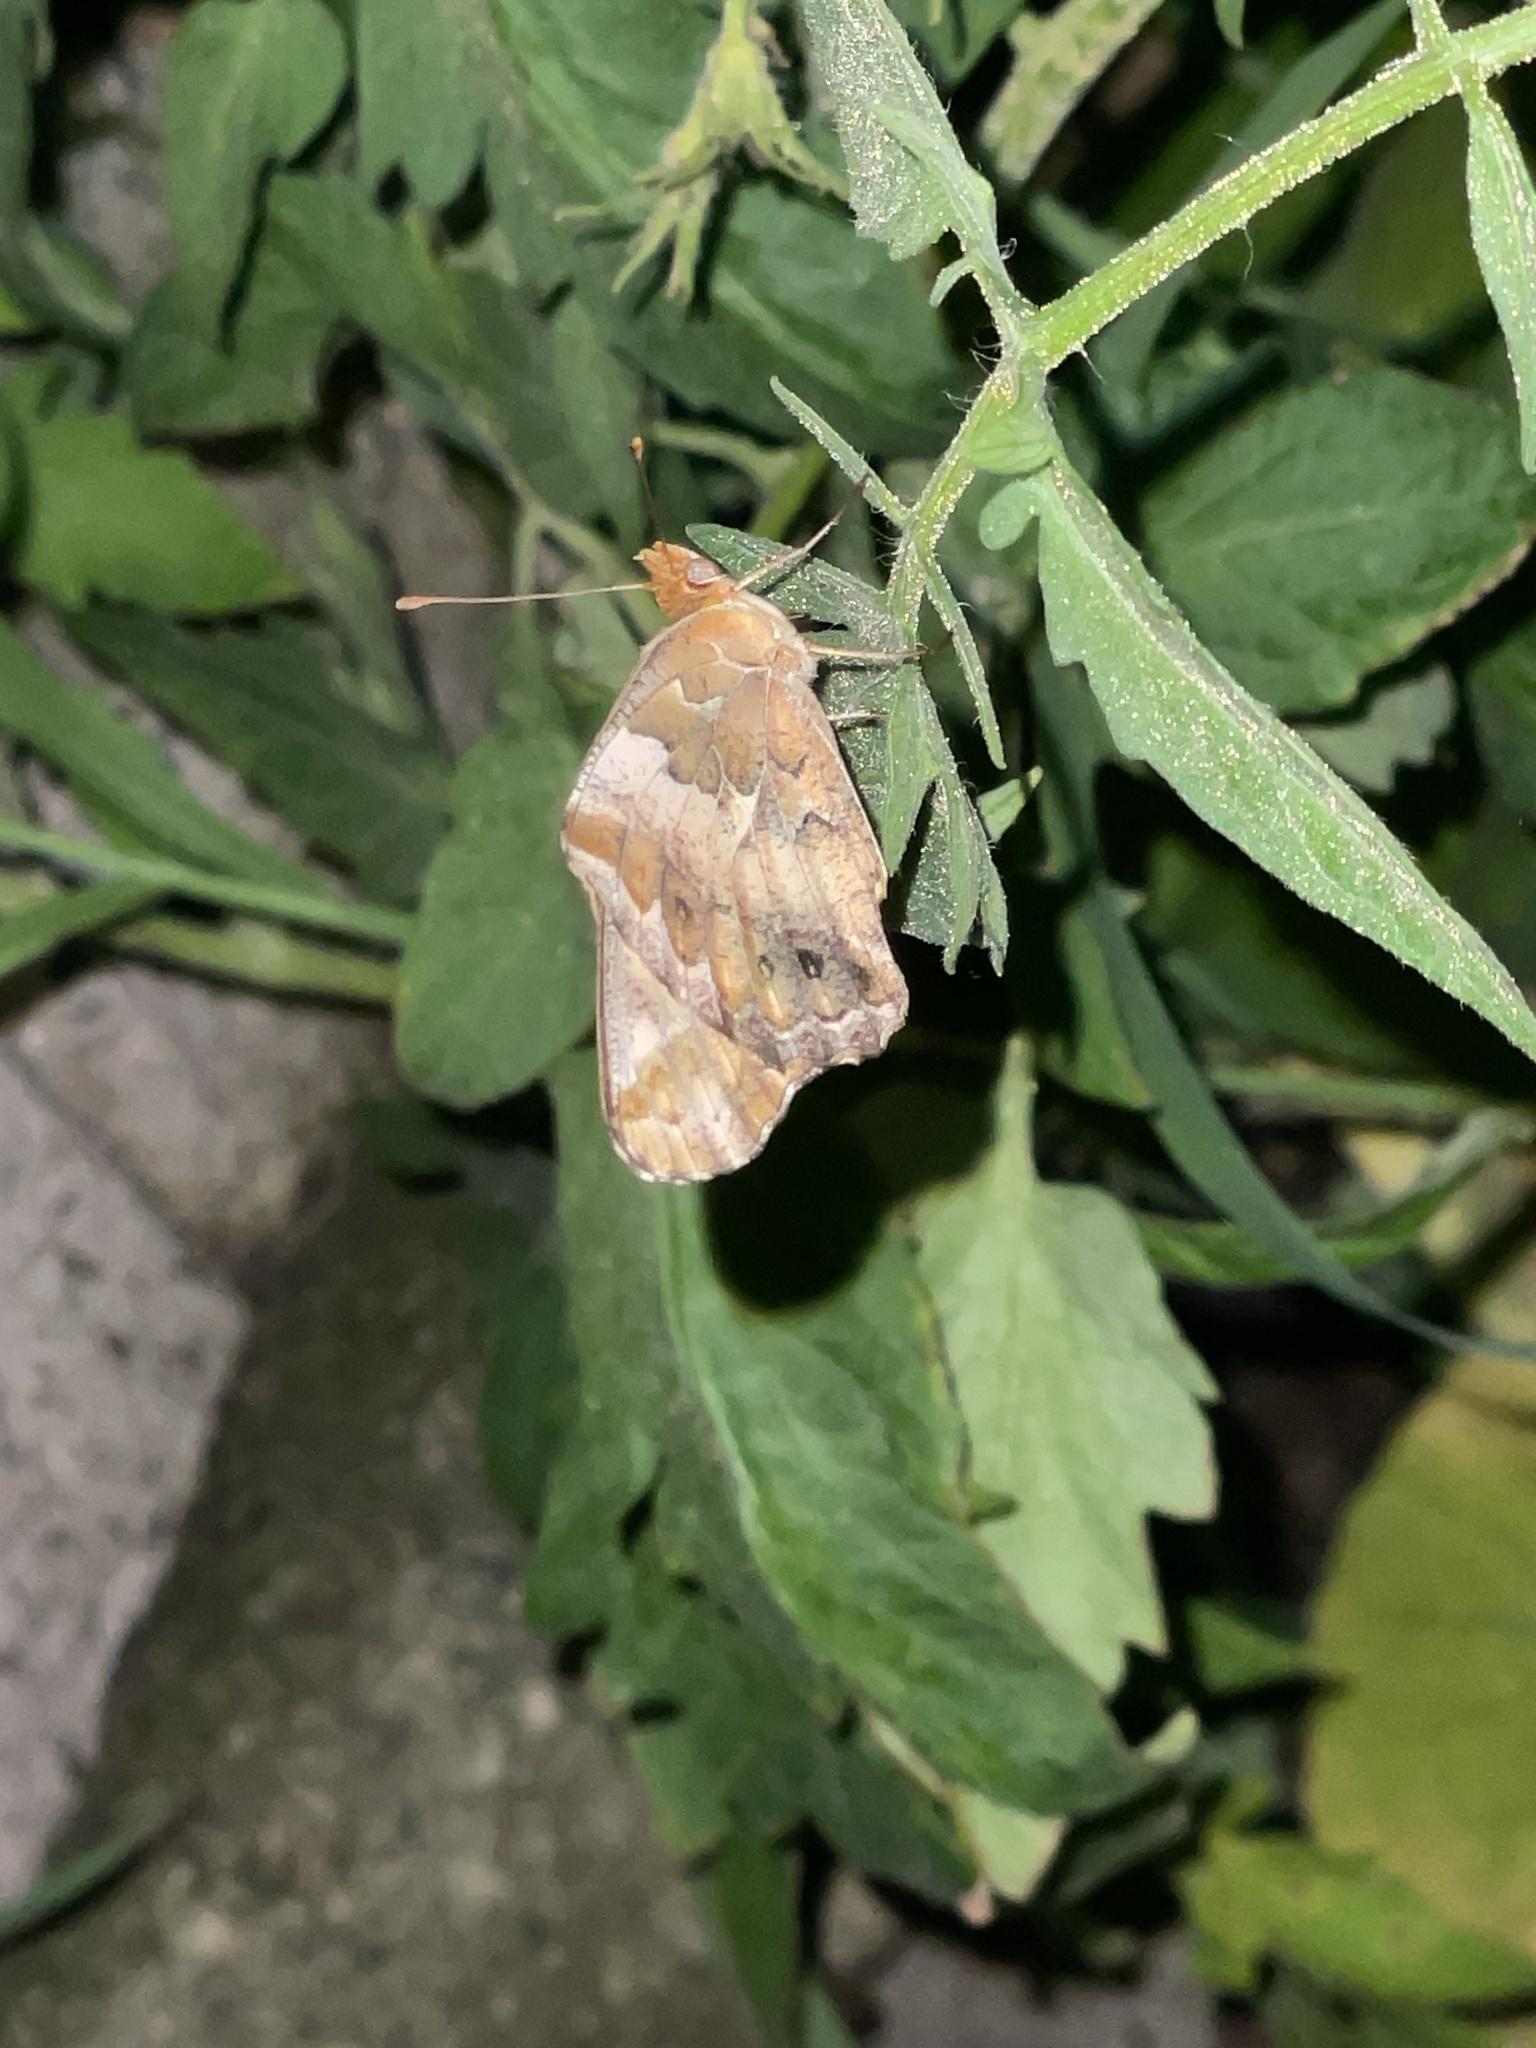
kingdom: Animalia
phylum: Arthropoda
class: Insecta
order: Lepidoptera
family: Nymphalidae
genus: Euptoieta
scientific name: Euptoieta claudia
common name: Variegated fritillary
